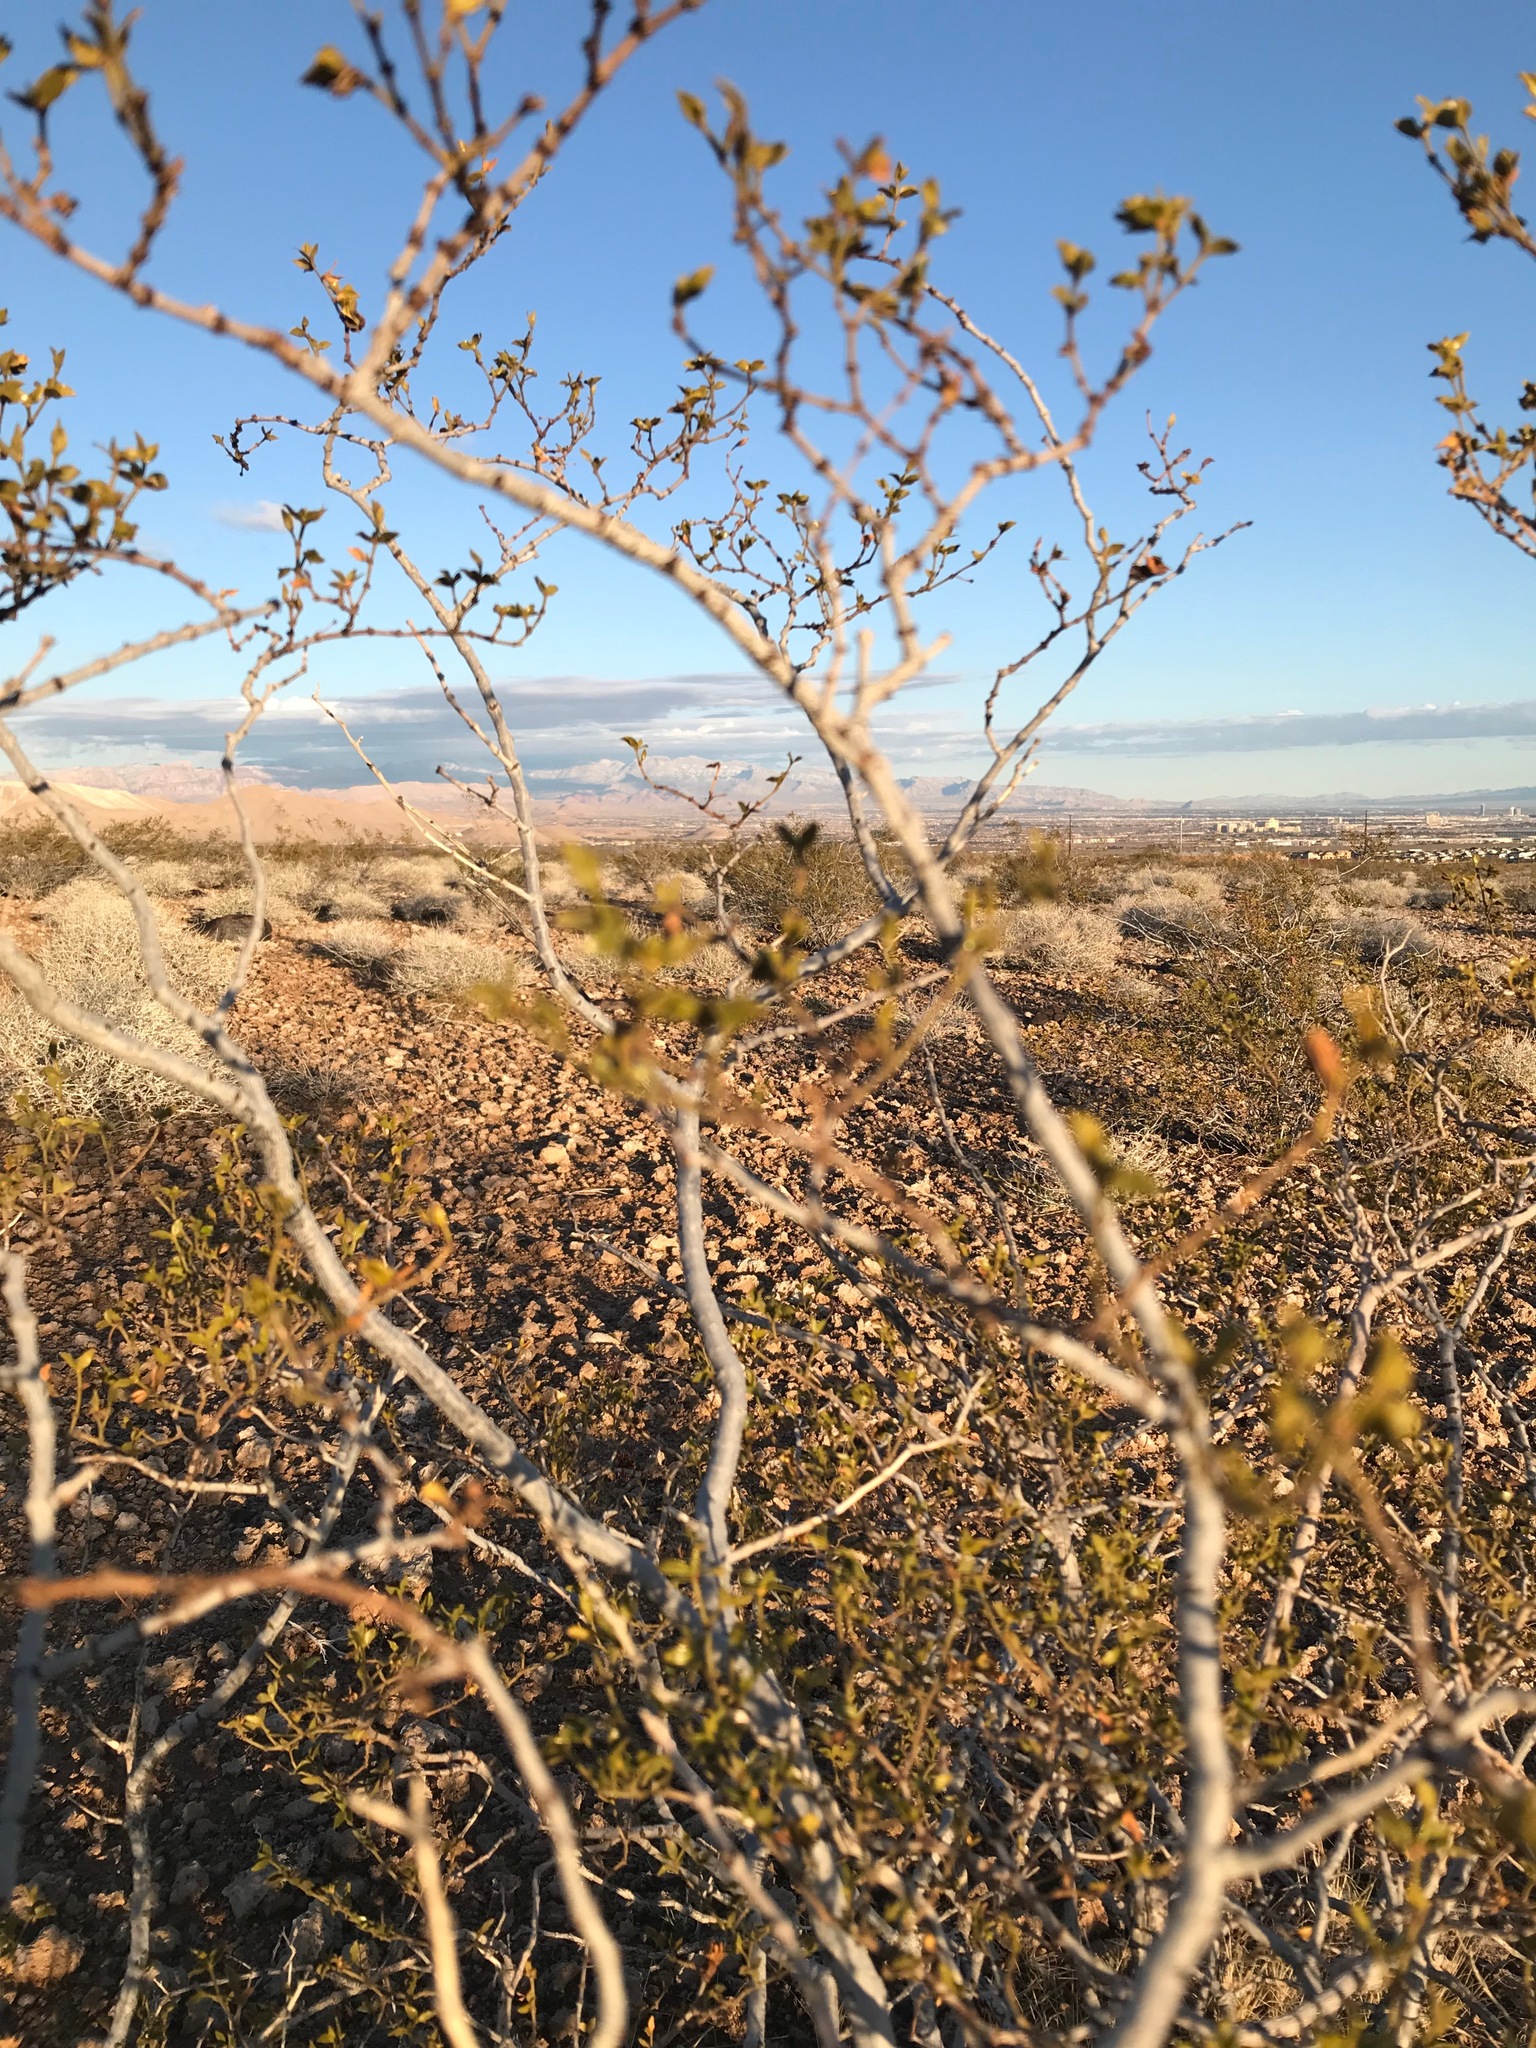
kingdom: Plantae
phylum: Tracheophyta
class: Magnoliopsida
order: Zygophyllales
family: Zygophyllaceae
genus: Larrea
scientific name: Larrea tridentata
